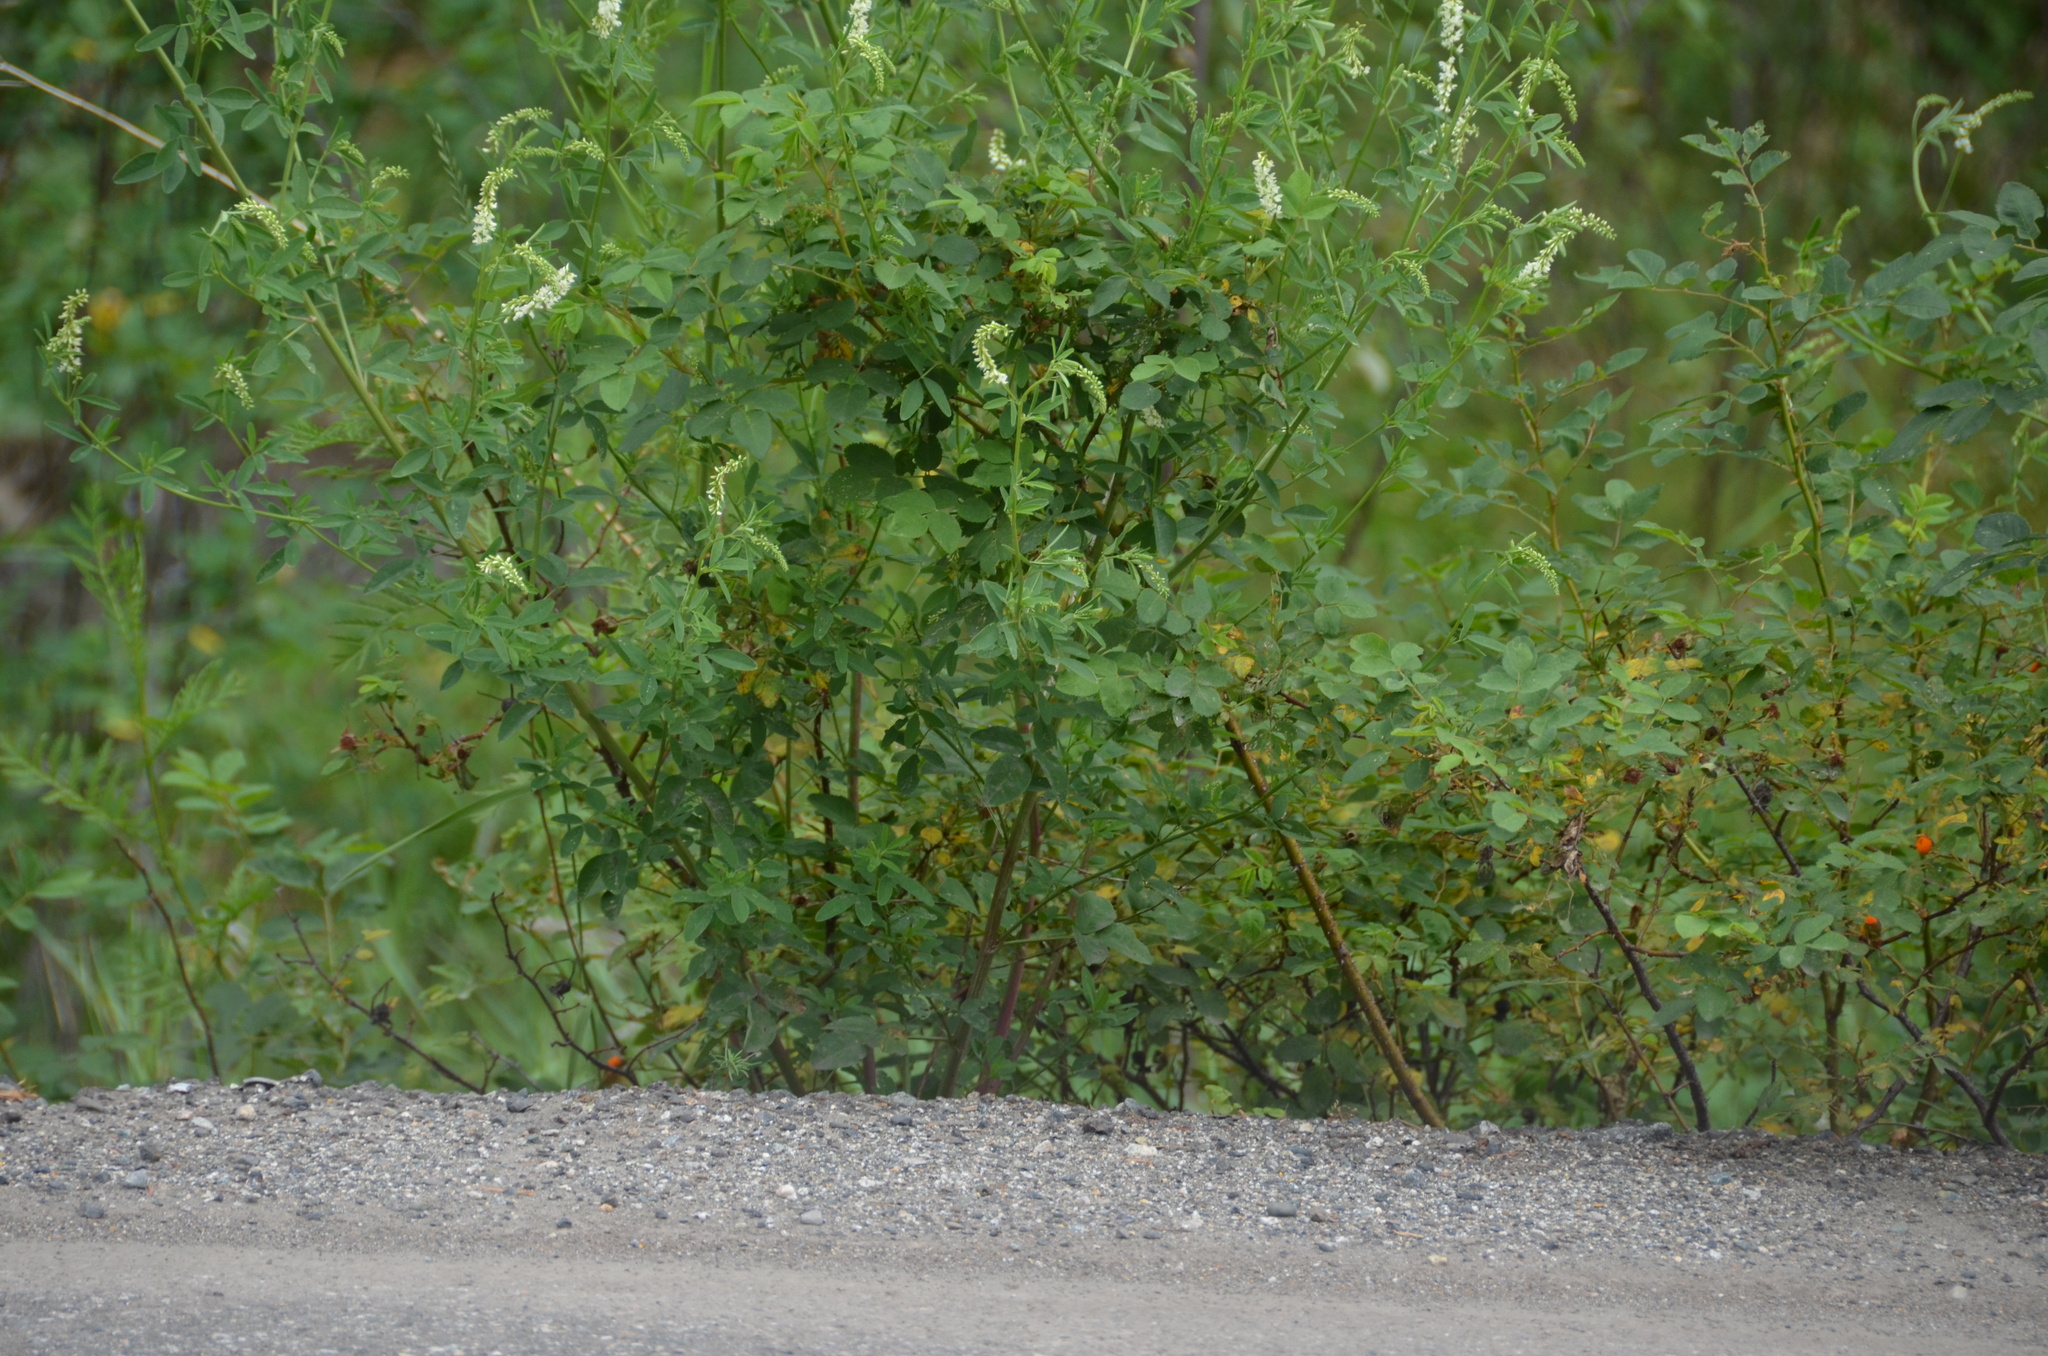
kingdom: Plantae
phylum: Tracheophyta
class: Magnoliopsida
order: Fabales
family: Fabaceae
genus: Melilotus
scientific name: Melilotus albus
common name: White melilot
